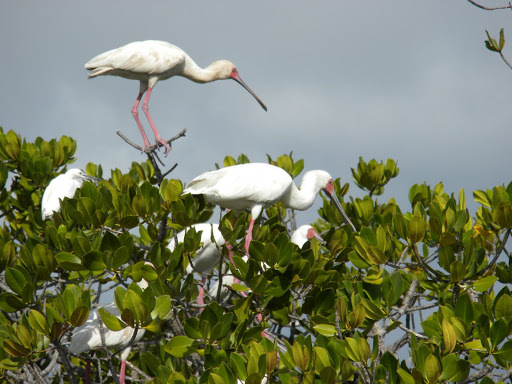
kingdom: Animalia
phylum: Chordata
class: Aves
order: Pelecaniformes
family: Threskiornithidae
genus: Platalea
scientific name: Platalea alba
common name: African spoonbill
